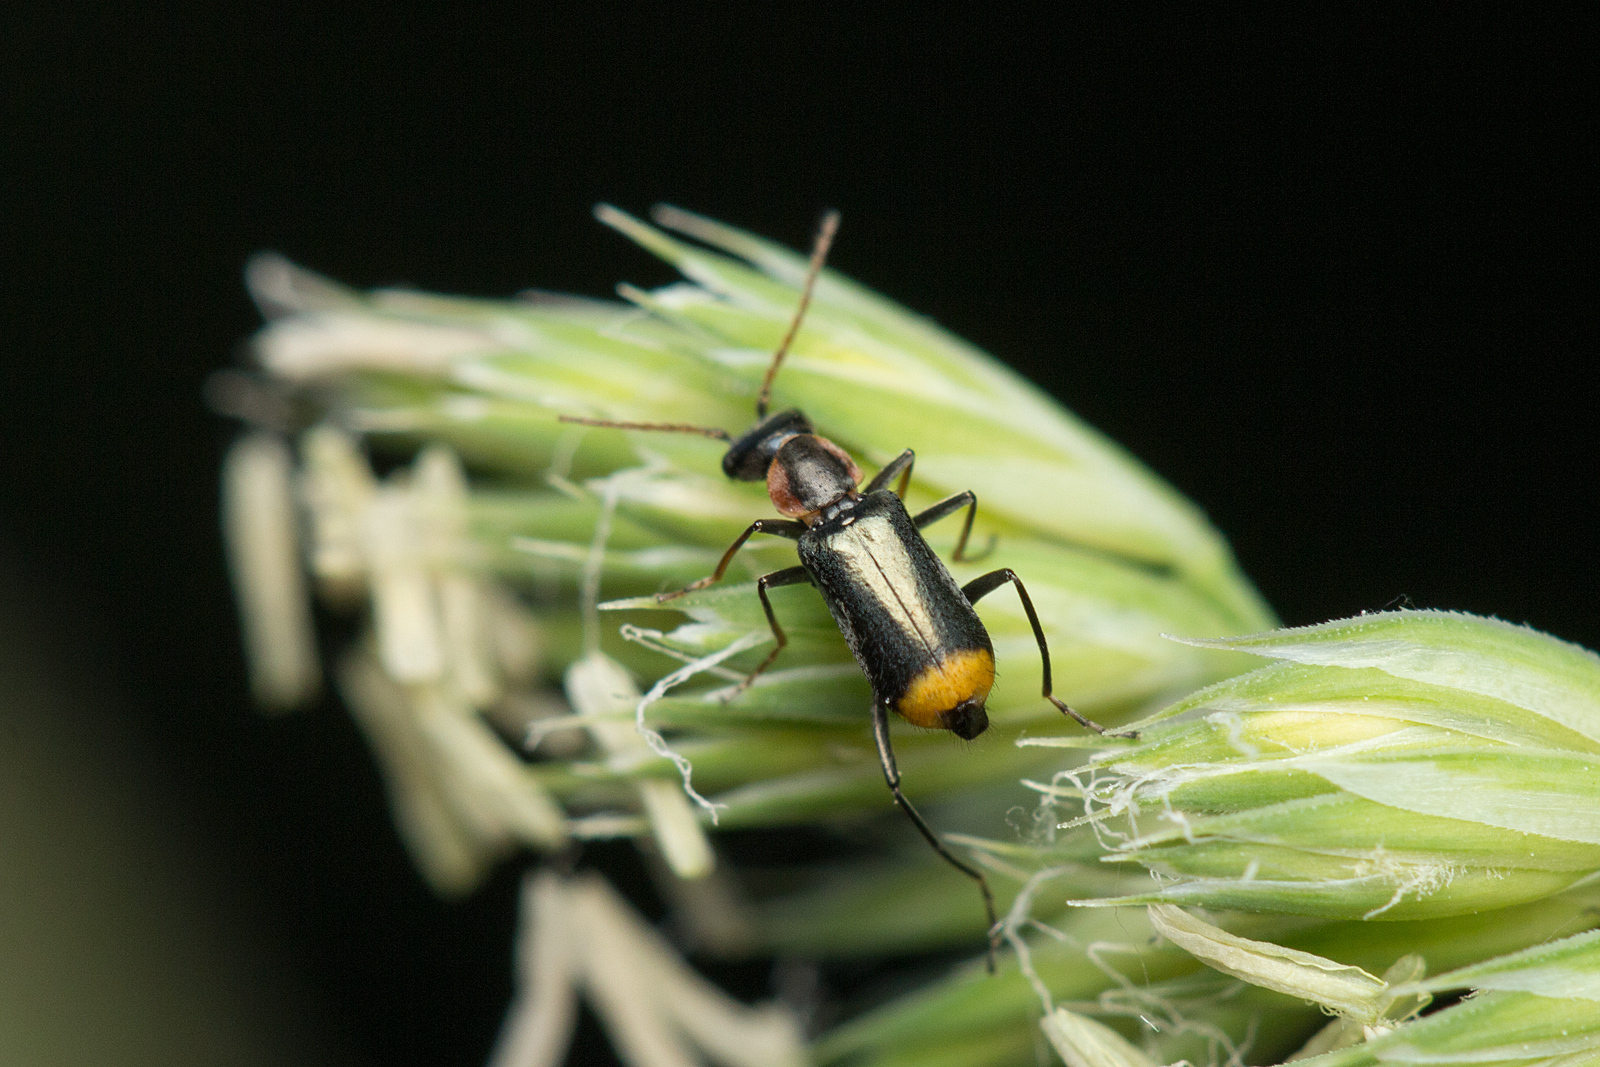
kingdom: Animalia
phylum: Arthropoda
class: Insecta
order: Coleoptera
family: Melyridae
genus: Axinotarsus
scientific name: Axinotarsus marginalis
